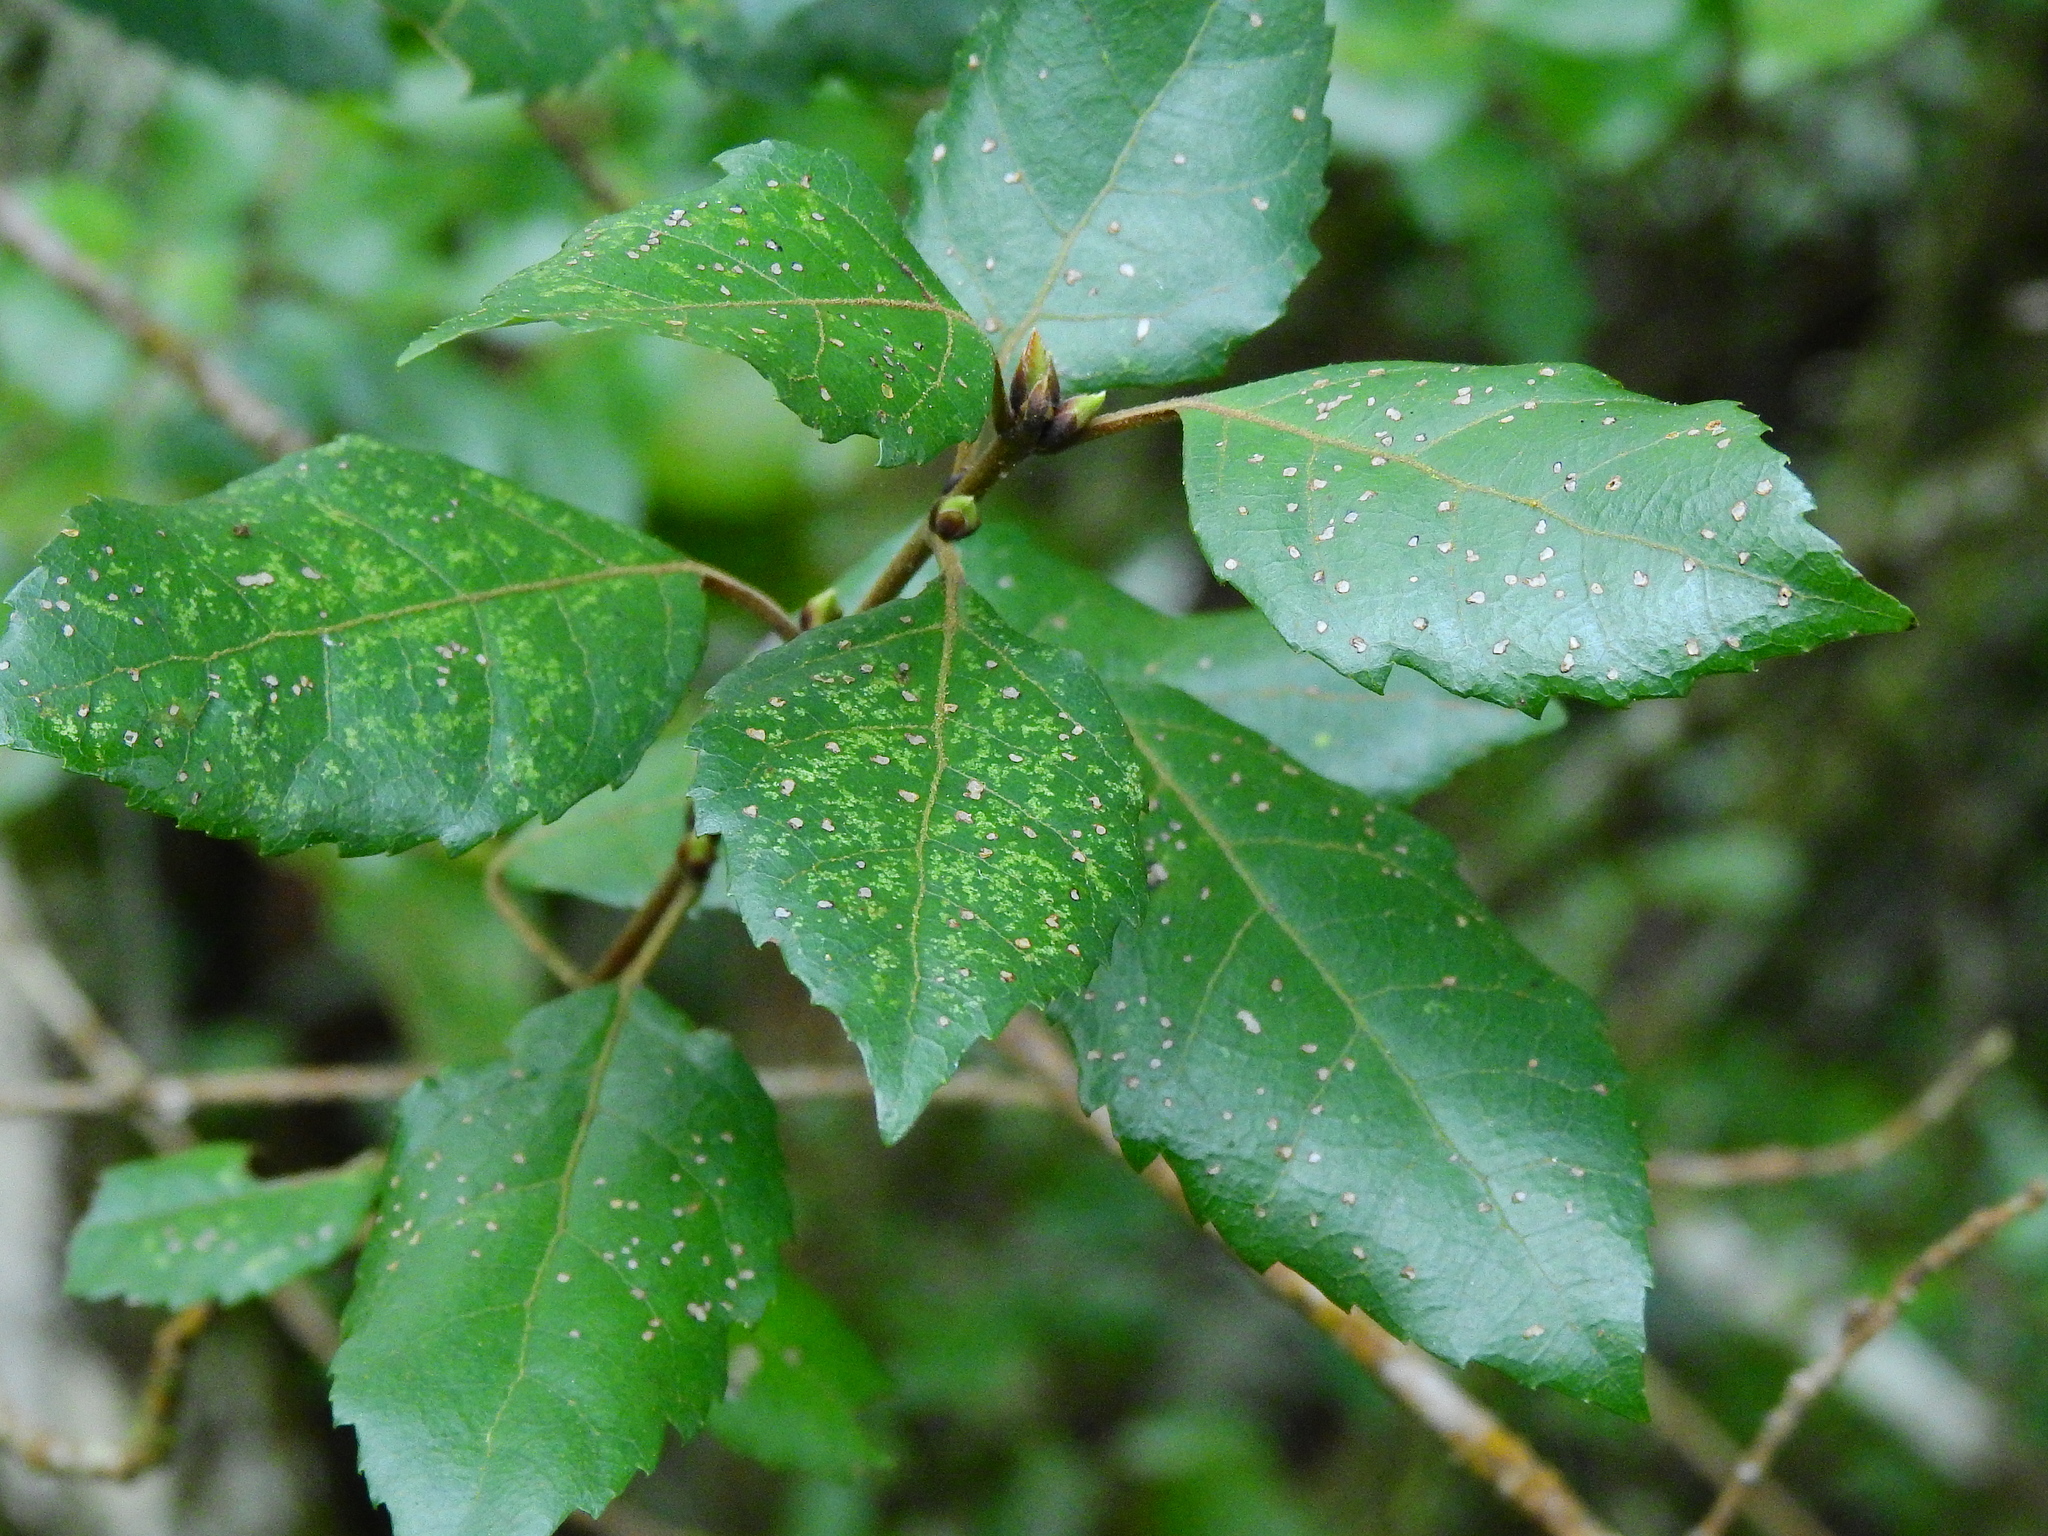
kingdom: Plantae
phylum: Tracheophyta
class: Magnoliopsida
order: Oxalidales
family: Elaeocarpaceae
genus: Aristotelia
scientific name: Aristotelia
